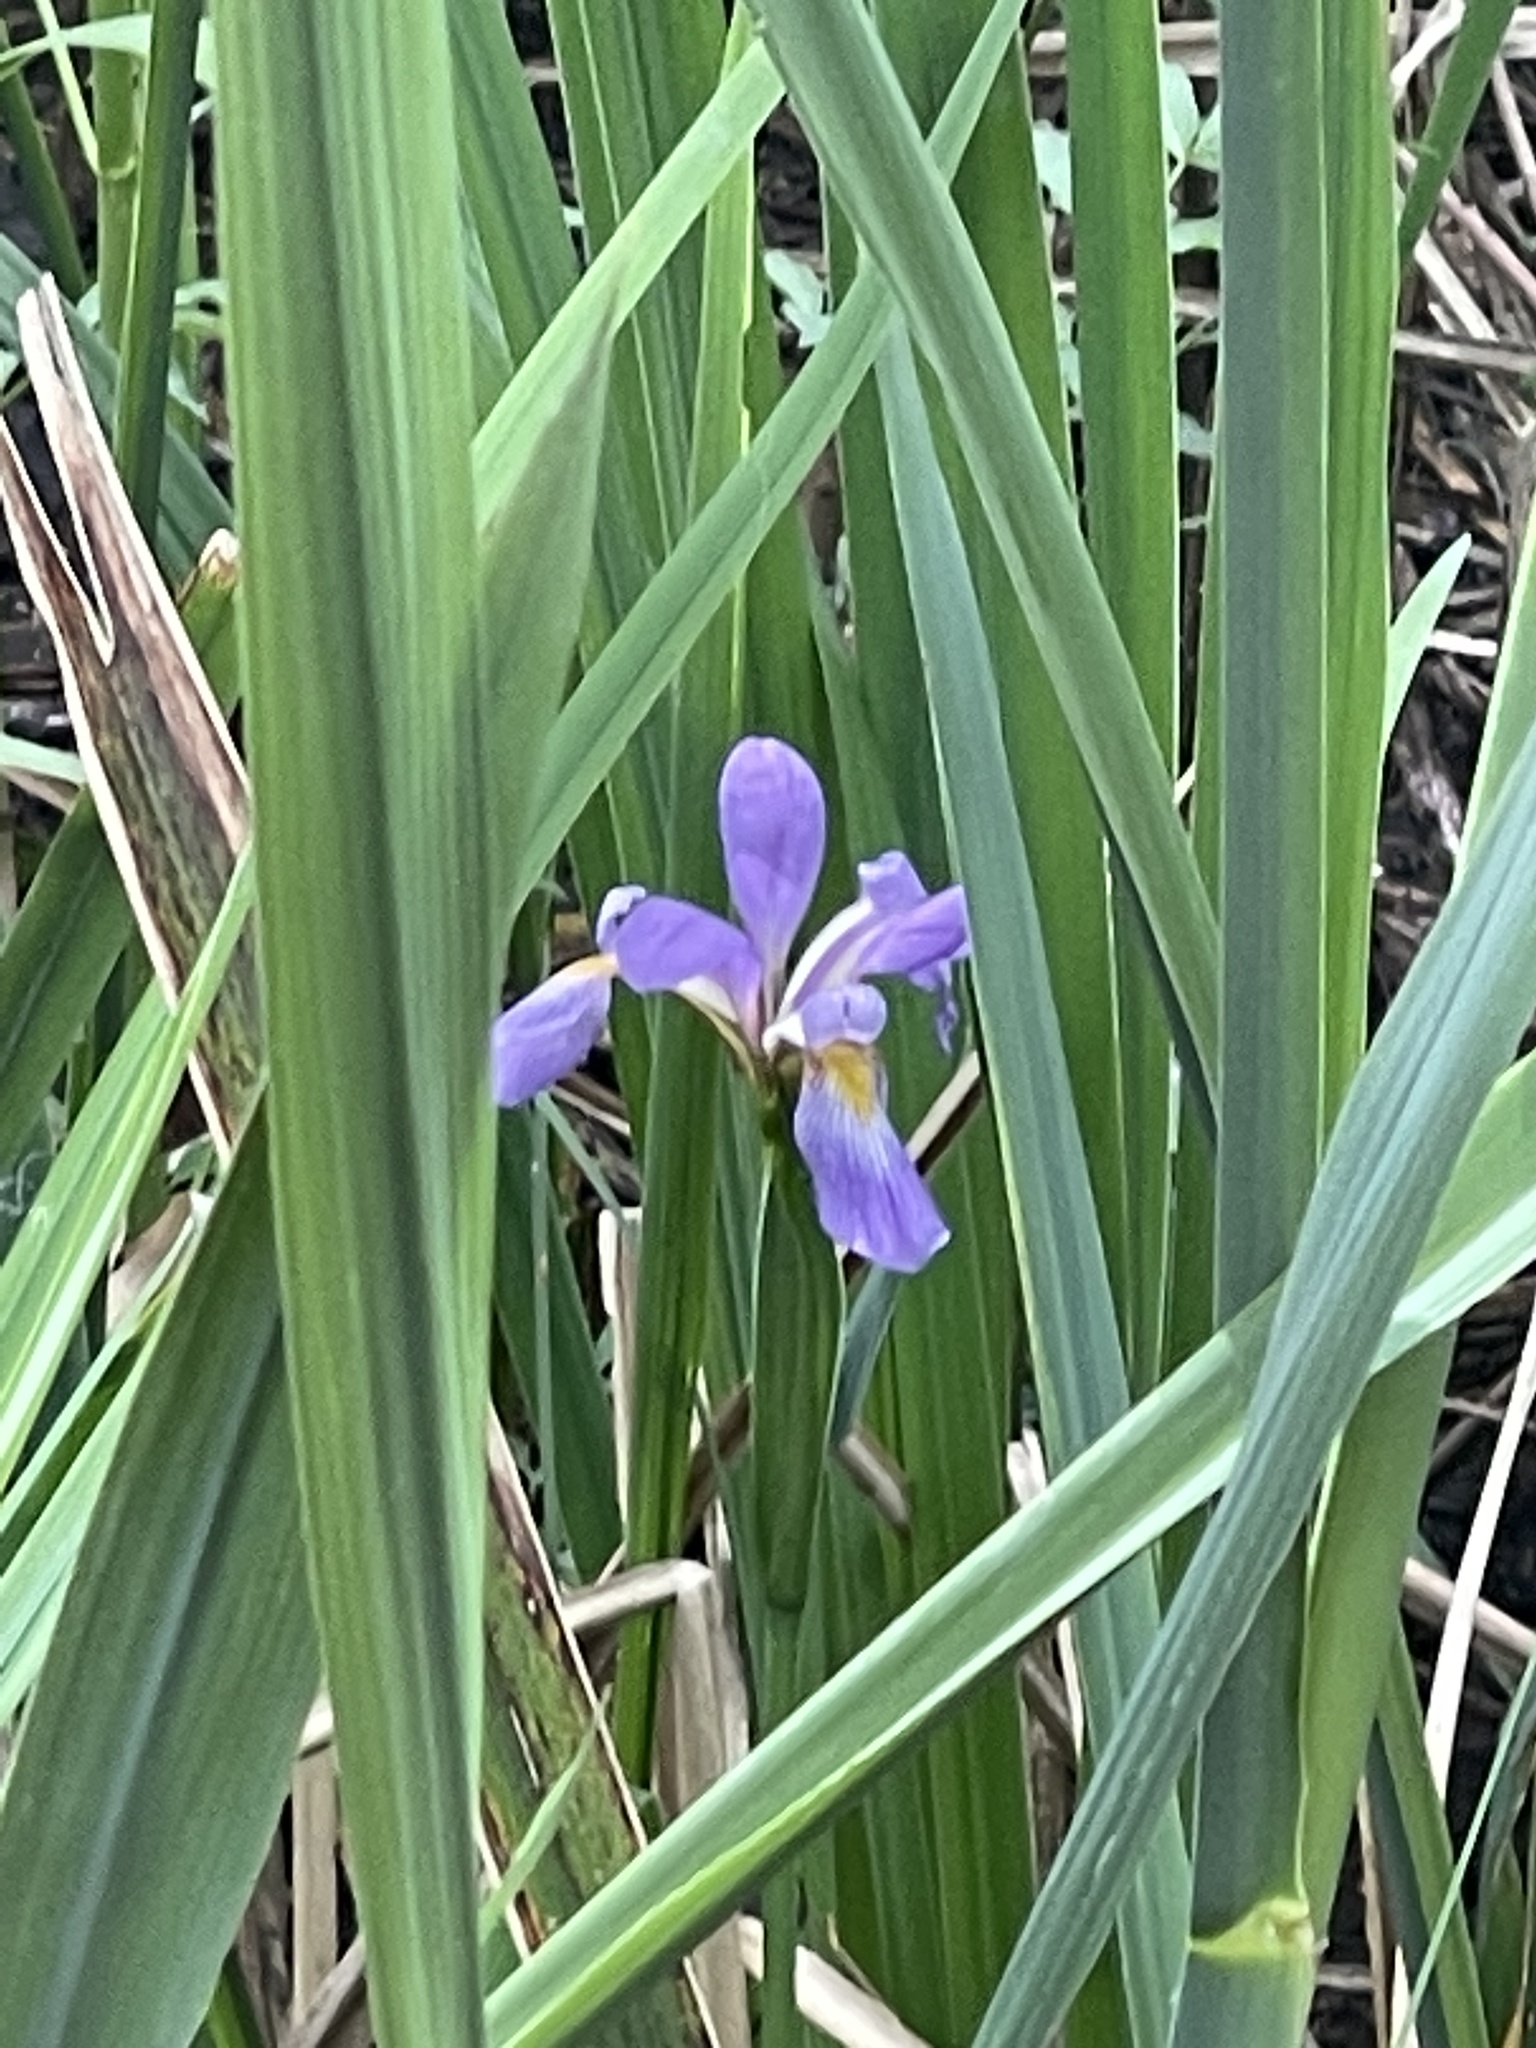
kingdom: Plantae
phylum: Tracheophyta
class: Liliopsida
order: Asparagales
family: Iridaceae
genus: Iris
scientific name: Iris virginica
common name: Southern blue flag
